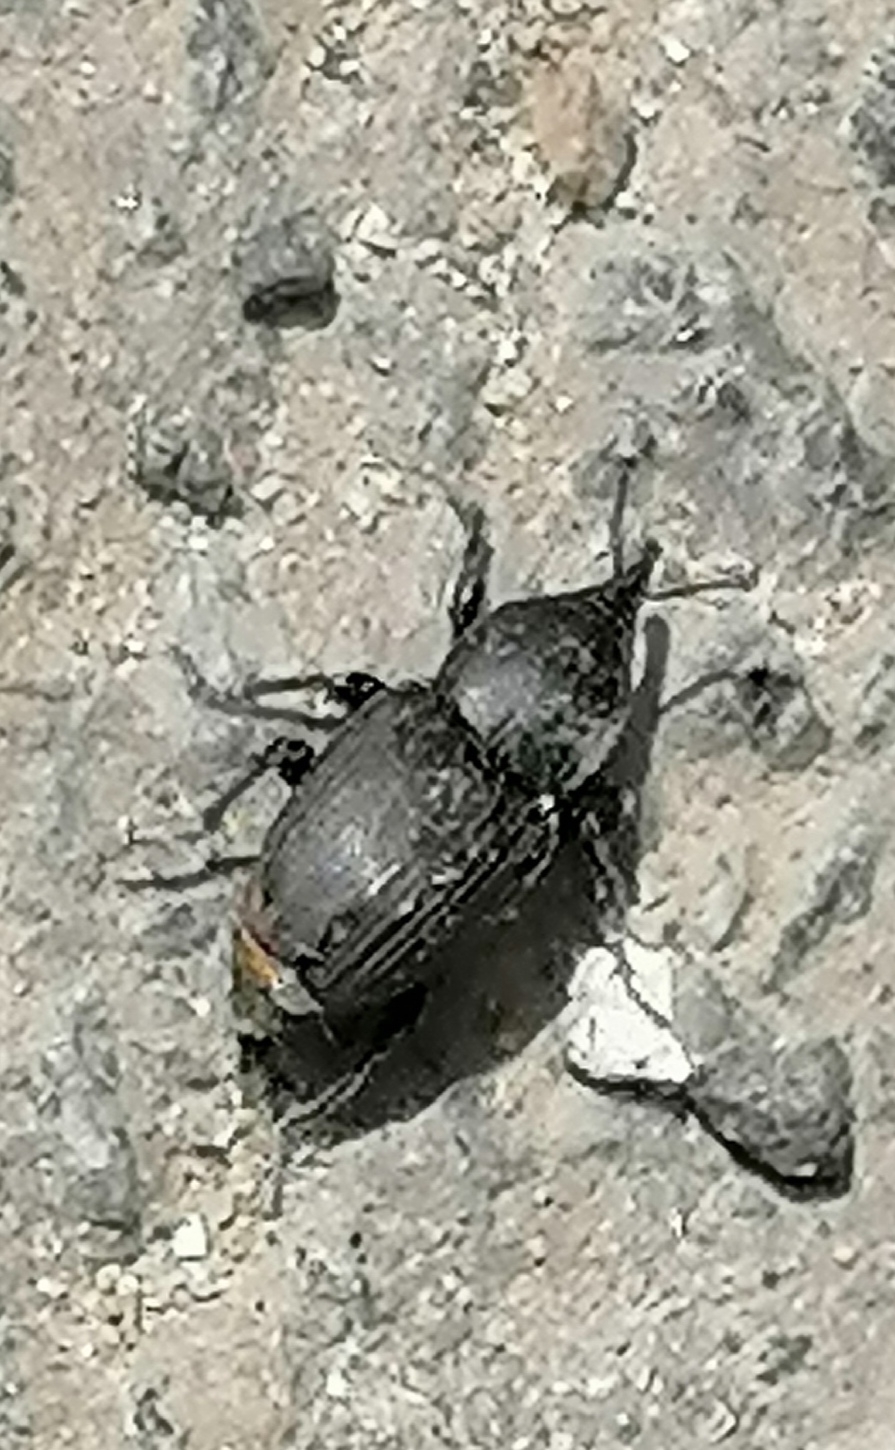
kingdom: Animalia
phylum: Arthropoda
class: Insecta
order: Coleoptera
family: Dryophthoridae
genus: Sphenophorus
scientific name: Sphenophorus striatopunctatus
